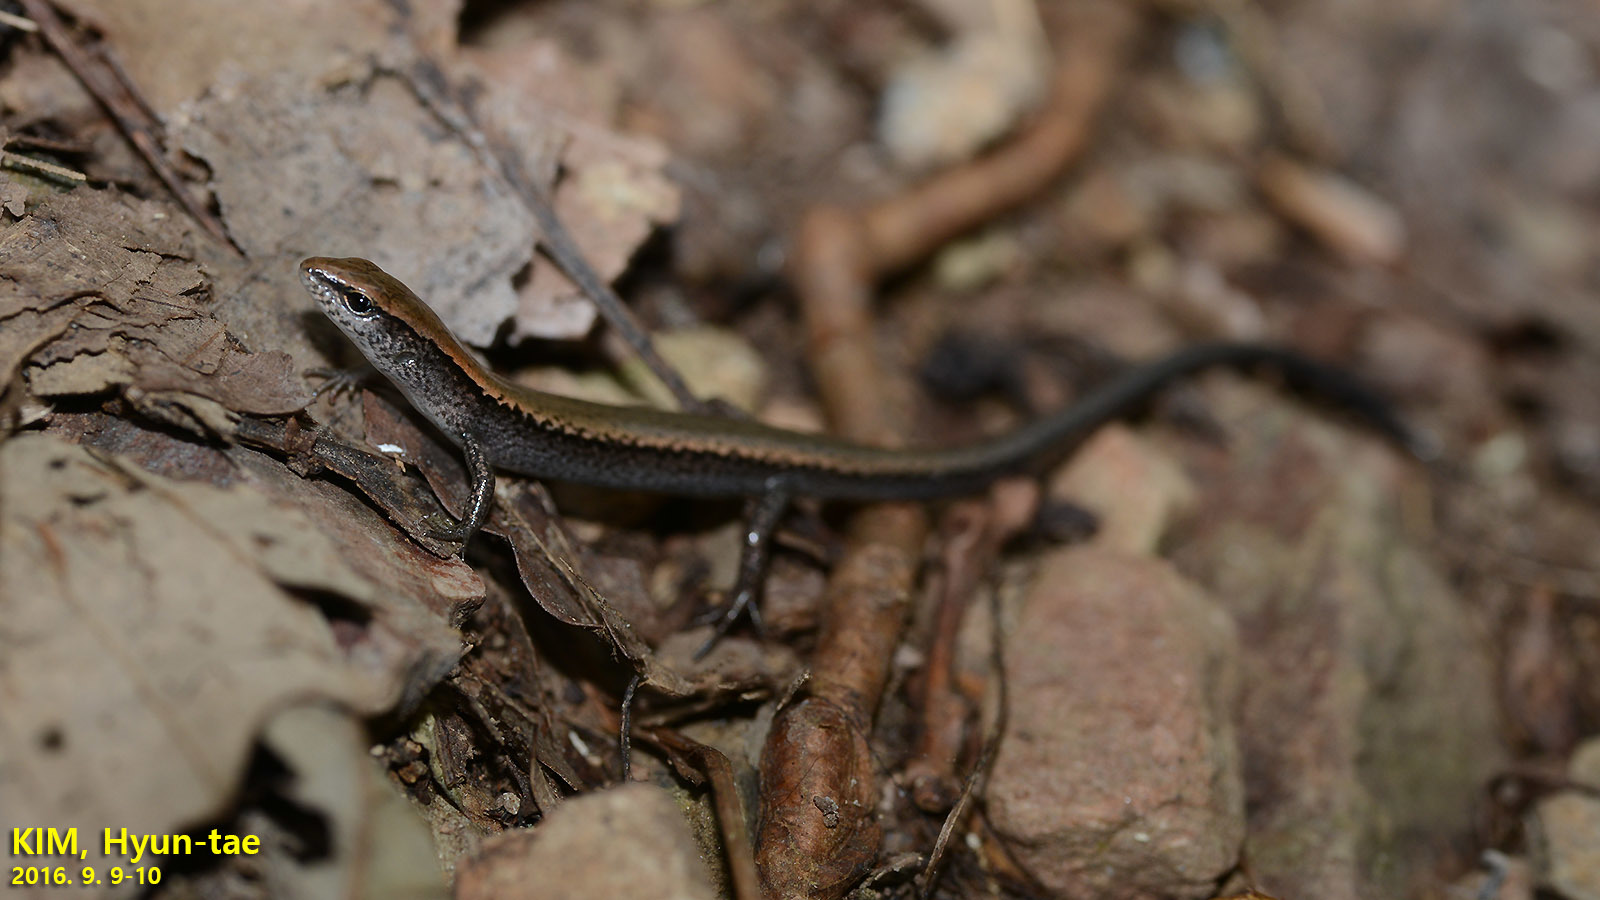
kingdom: Animalia
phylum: Chordata
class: Squamata
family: Scincidae
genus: Scincella
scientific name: Scincella vandenburghi
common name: Tsushima smooth skink
